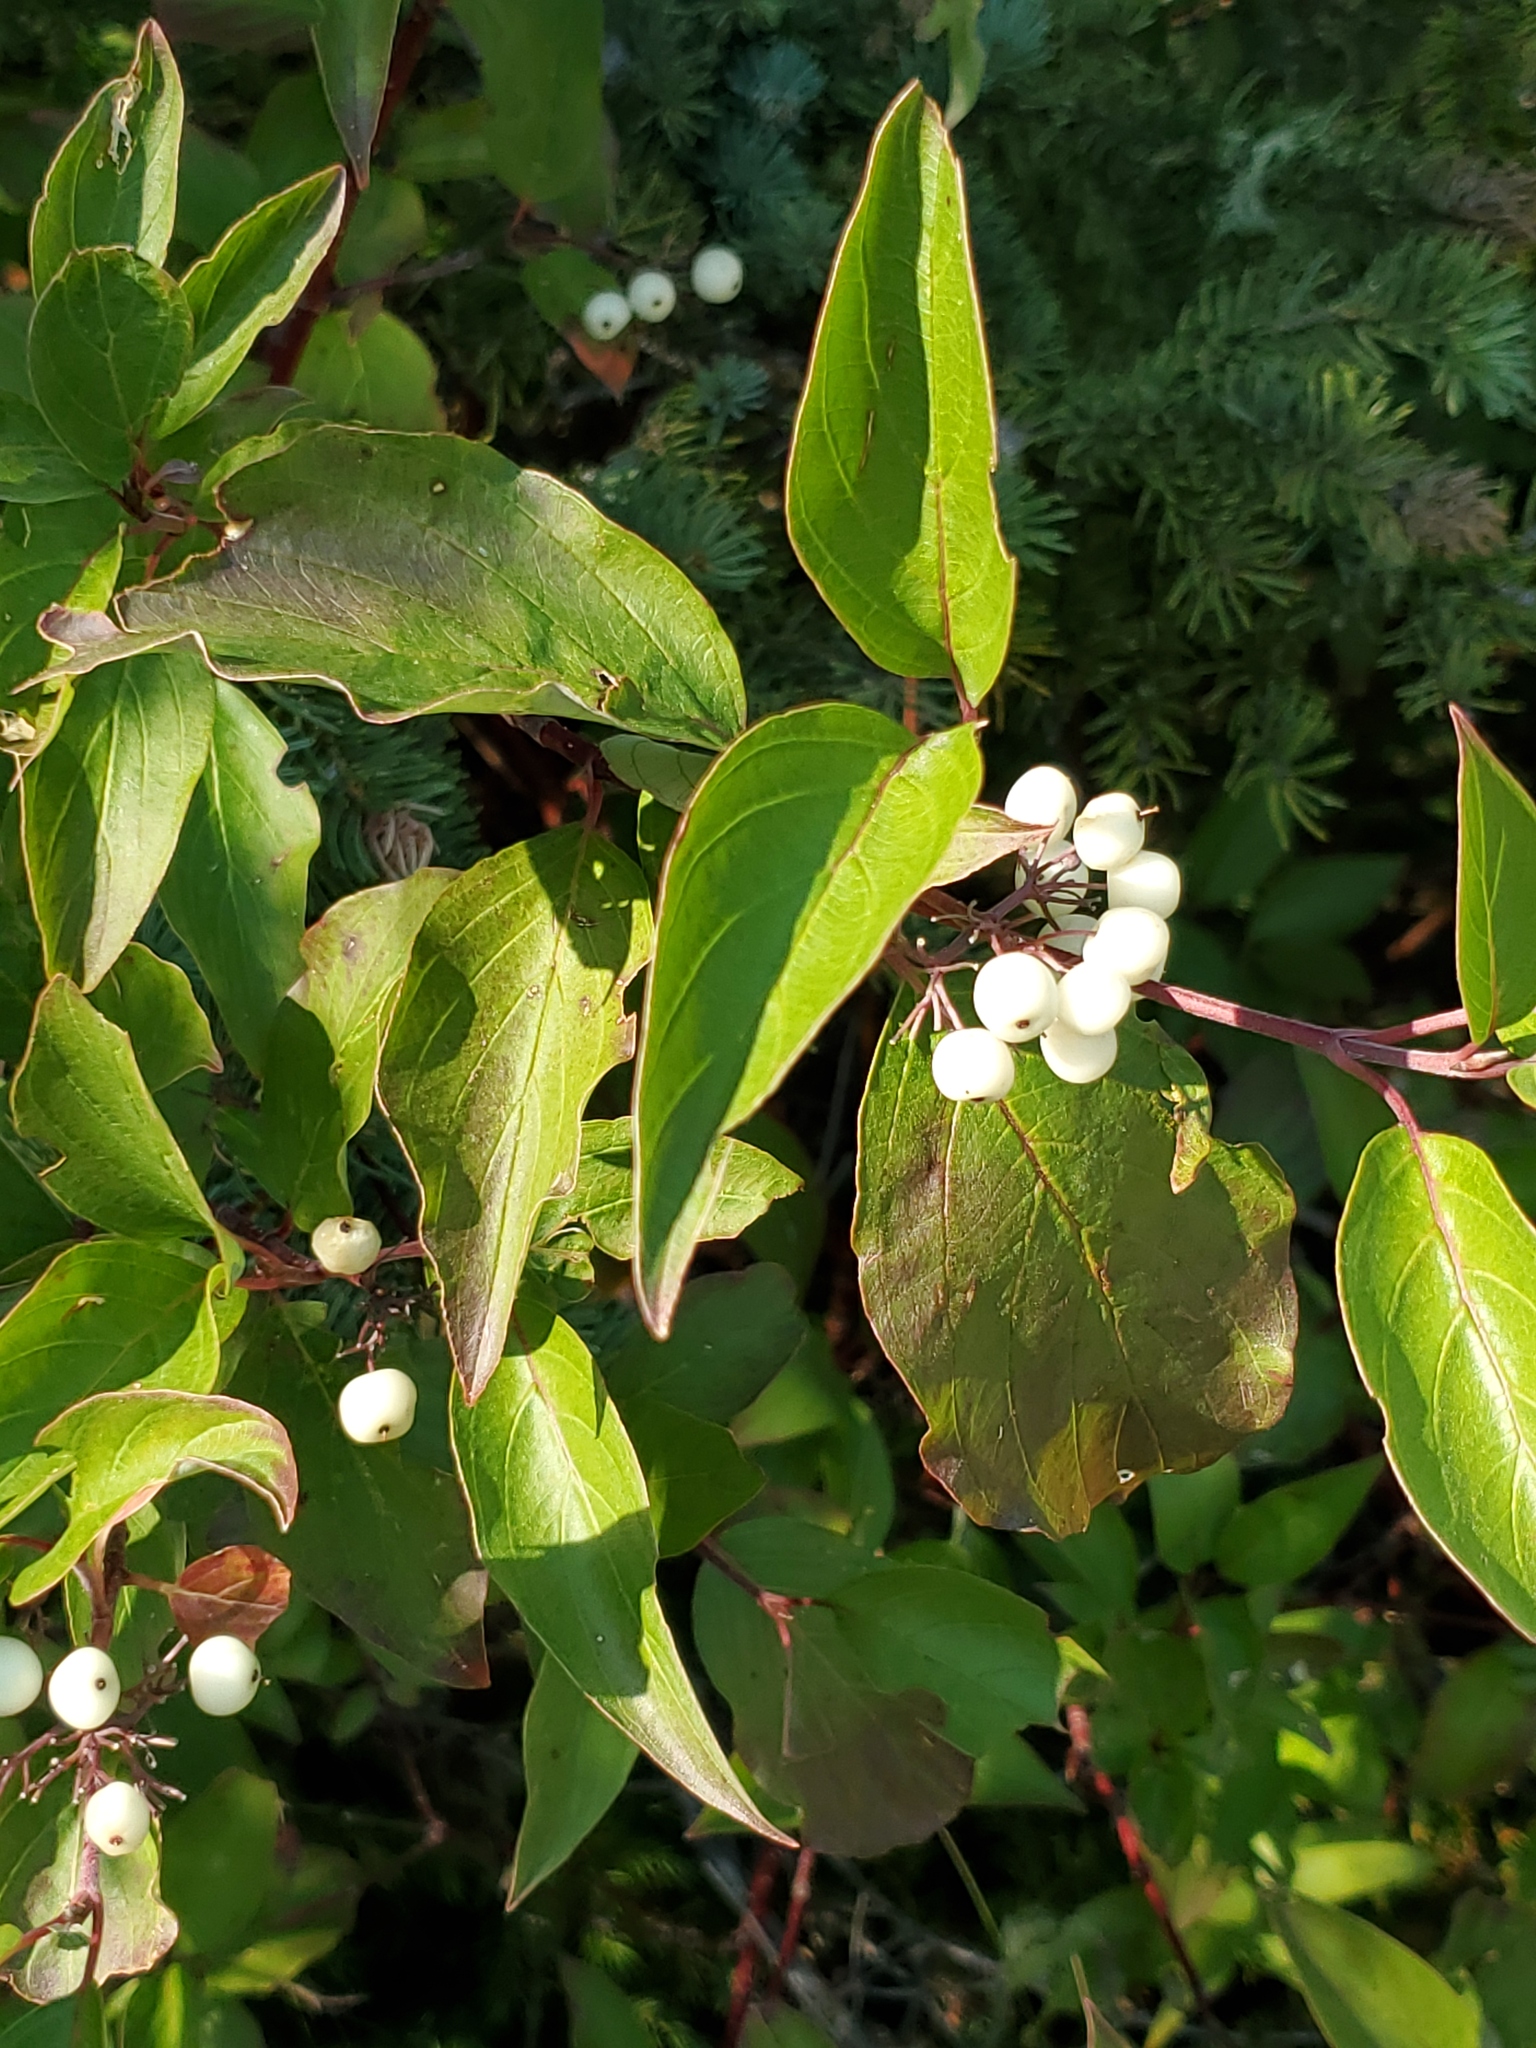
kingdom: Plantae
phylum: Tracheophyta
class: Magnoliopsida
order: Cornales
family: Cornaceae
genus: Cornus
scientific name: Cornus sericea
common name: Red-osier dogwood
